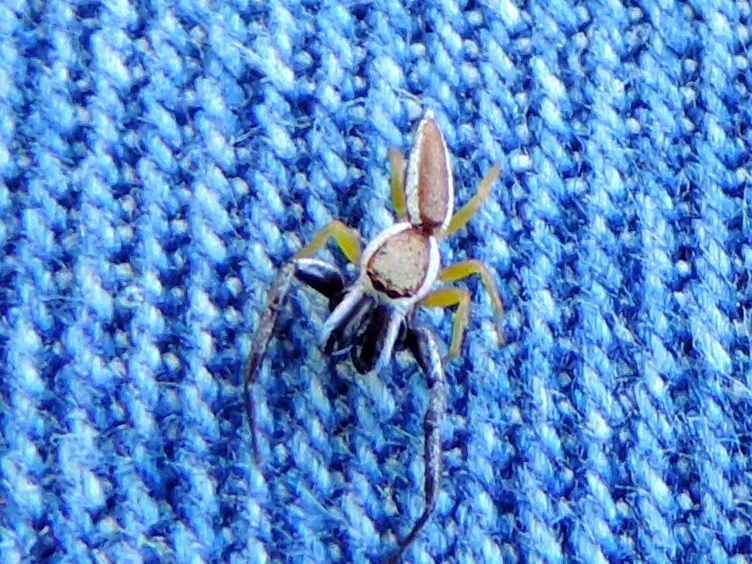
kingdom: Animalia
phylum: Arthropoda
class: Arachnida
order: Araneae
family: Salticidae
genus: Hentzia
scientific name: Hentzia palmarum
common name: Common hentz jumping spider
